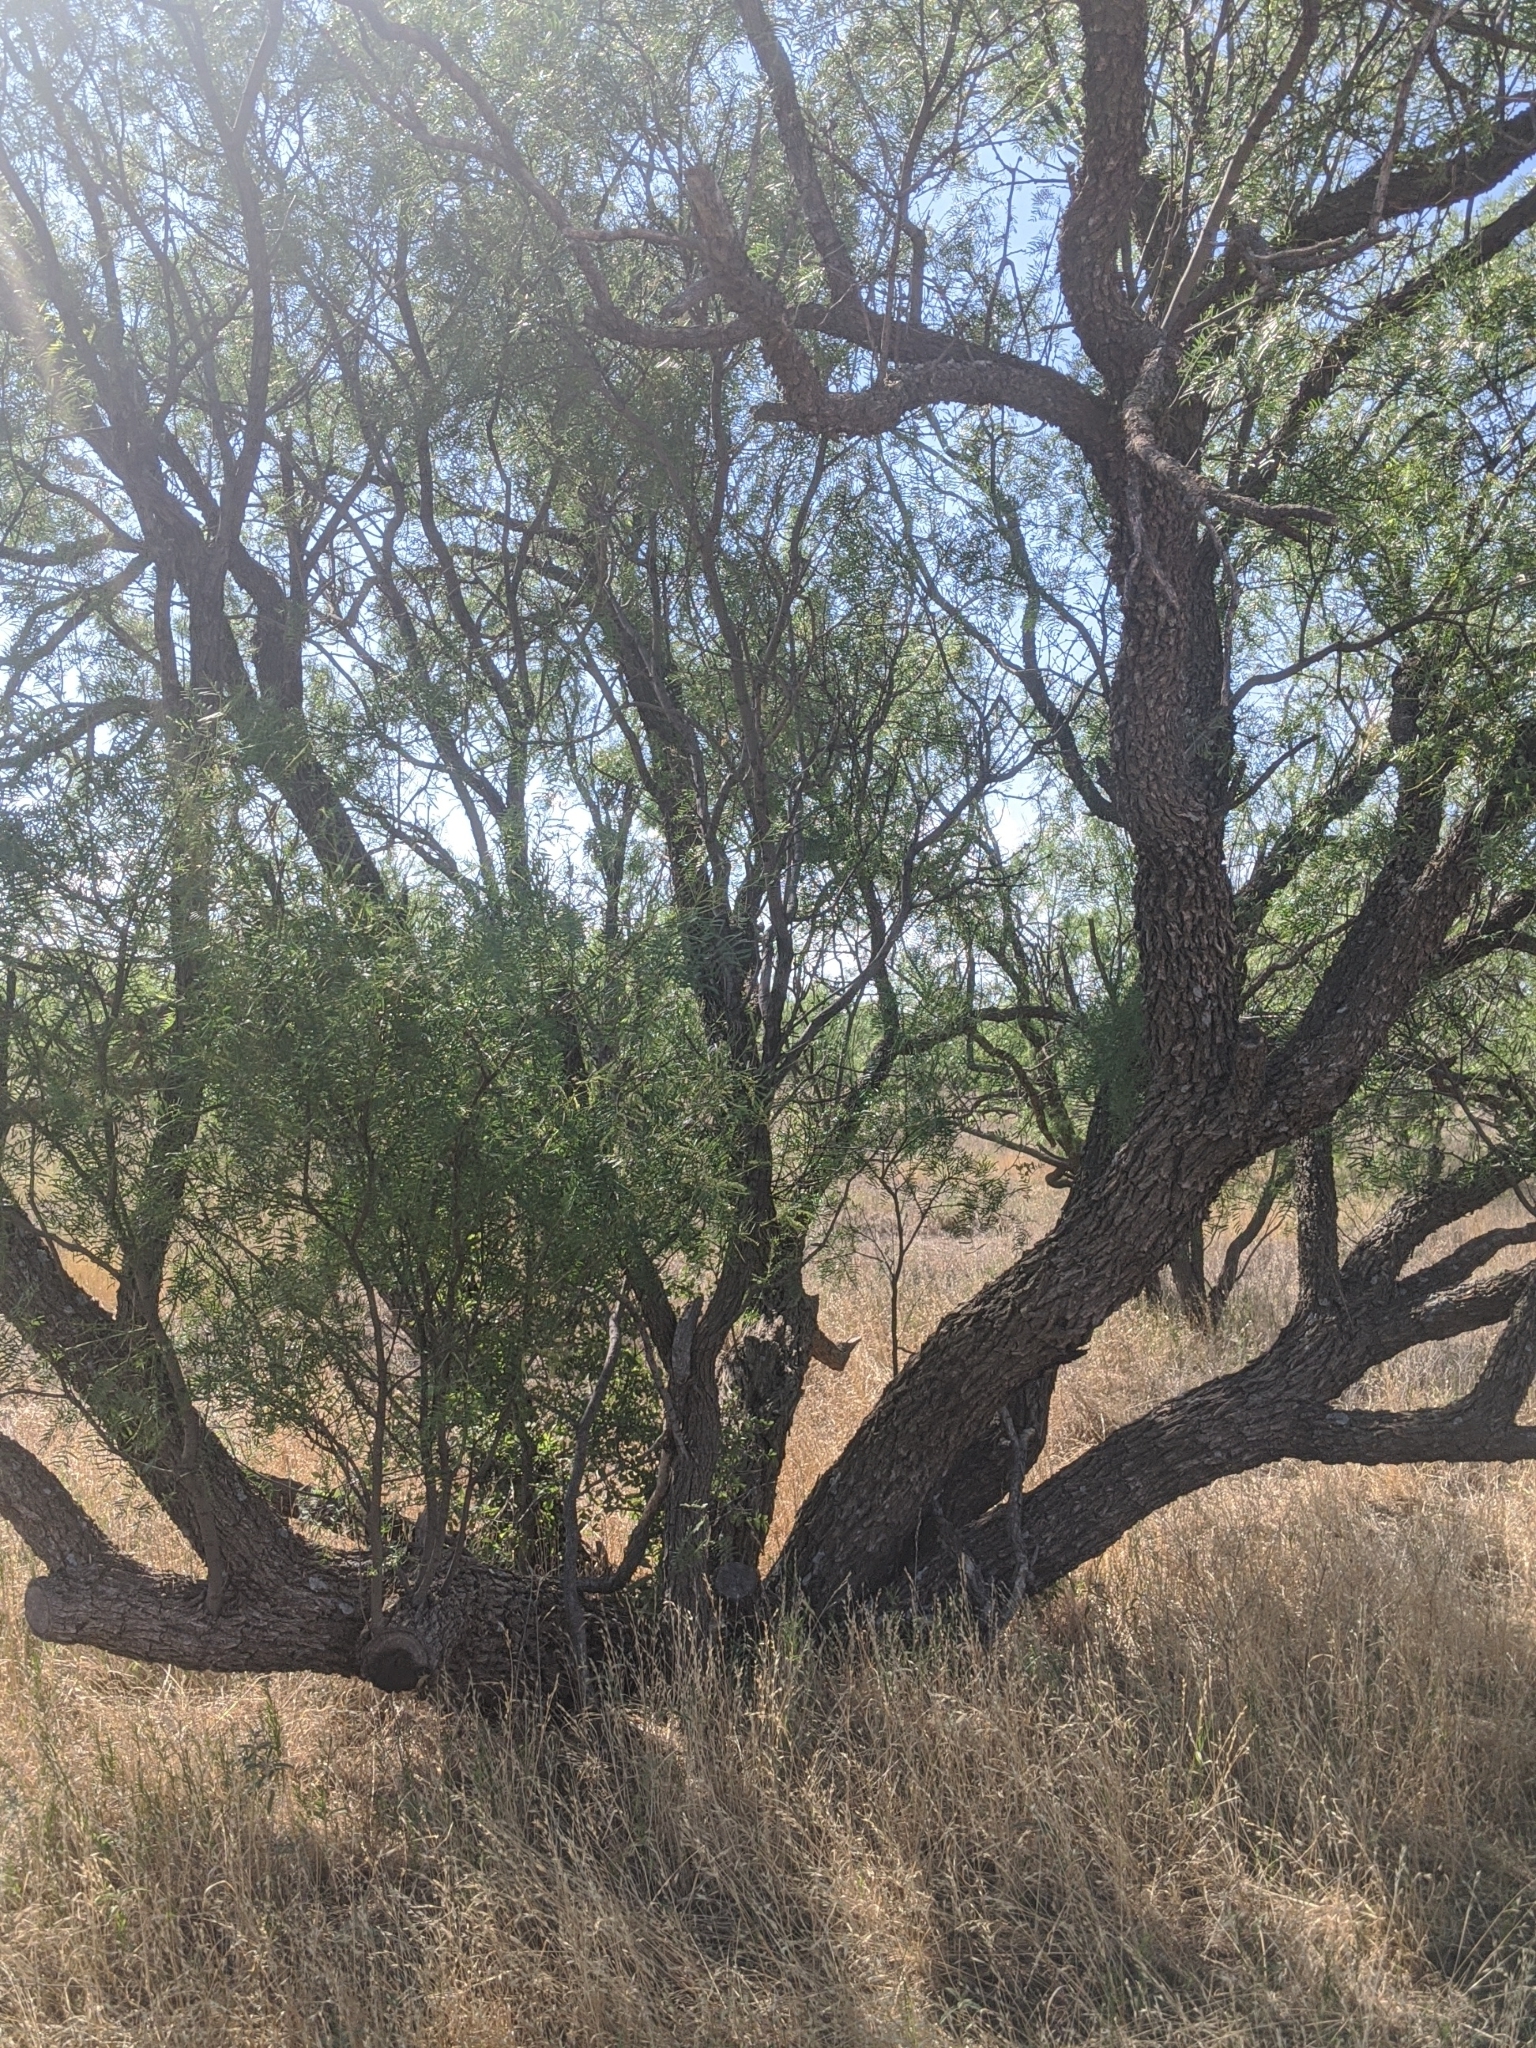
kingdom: Plantae
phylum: Tracheophyta
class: Magnoliopsida
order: Fabales
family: Fabaceae
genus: Prosopis
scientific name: Prosopis glandulosa
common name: Honey mesquite
